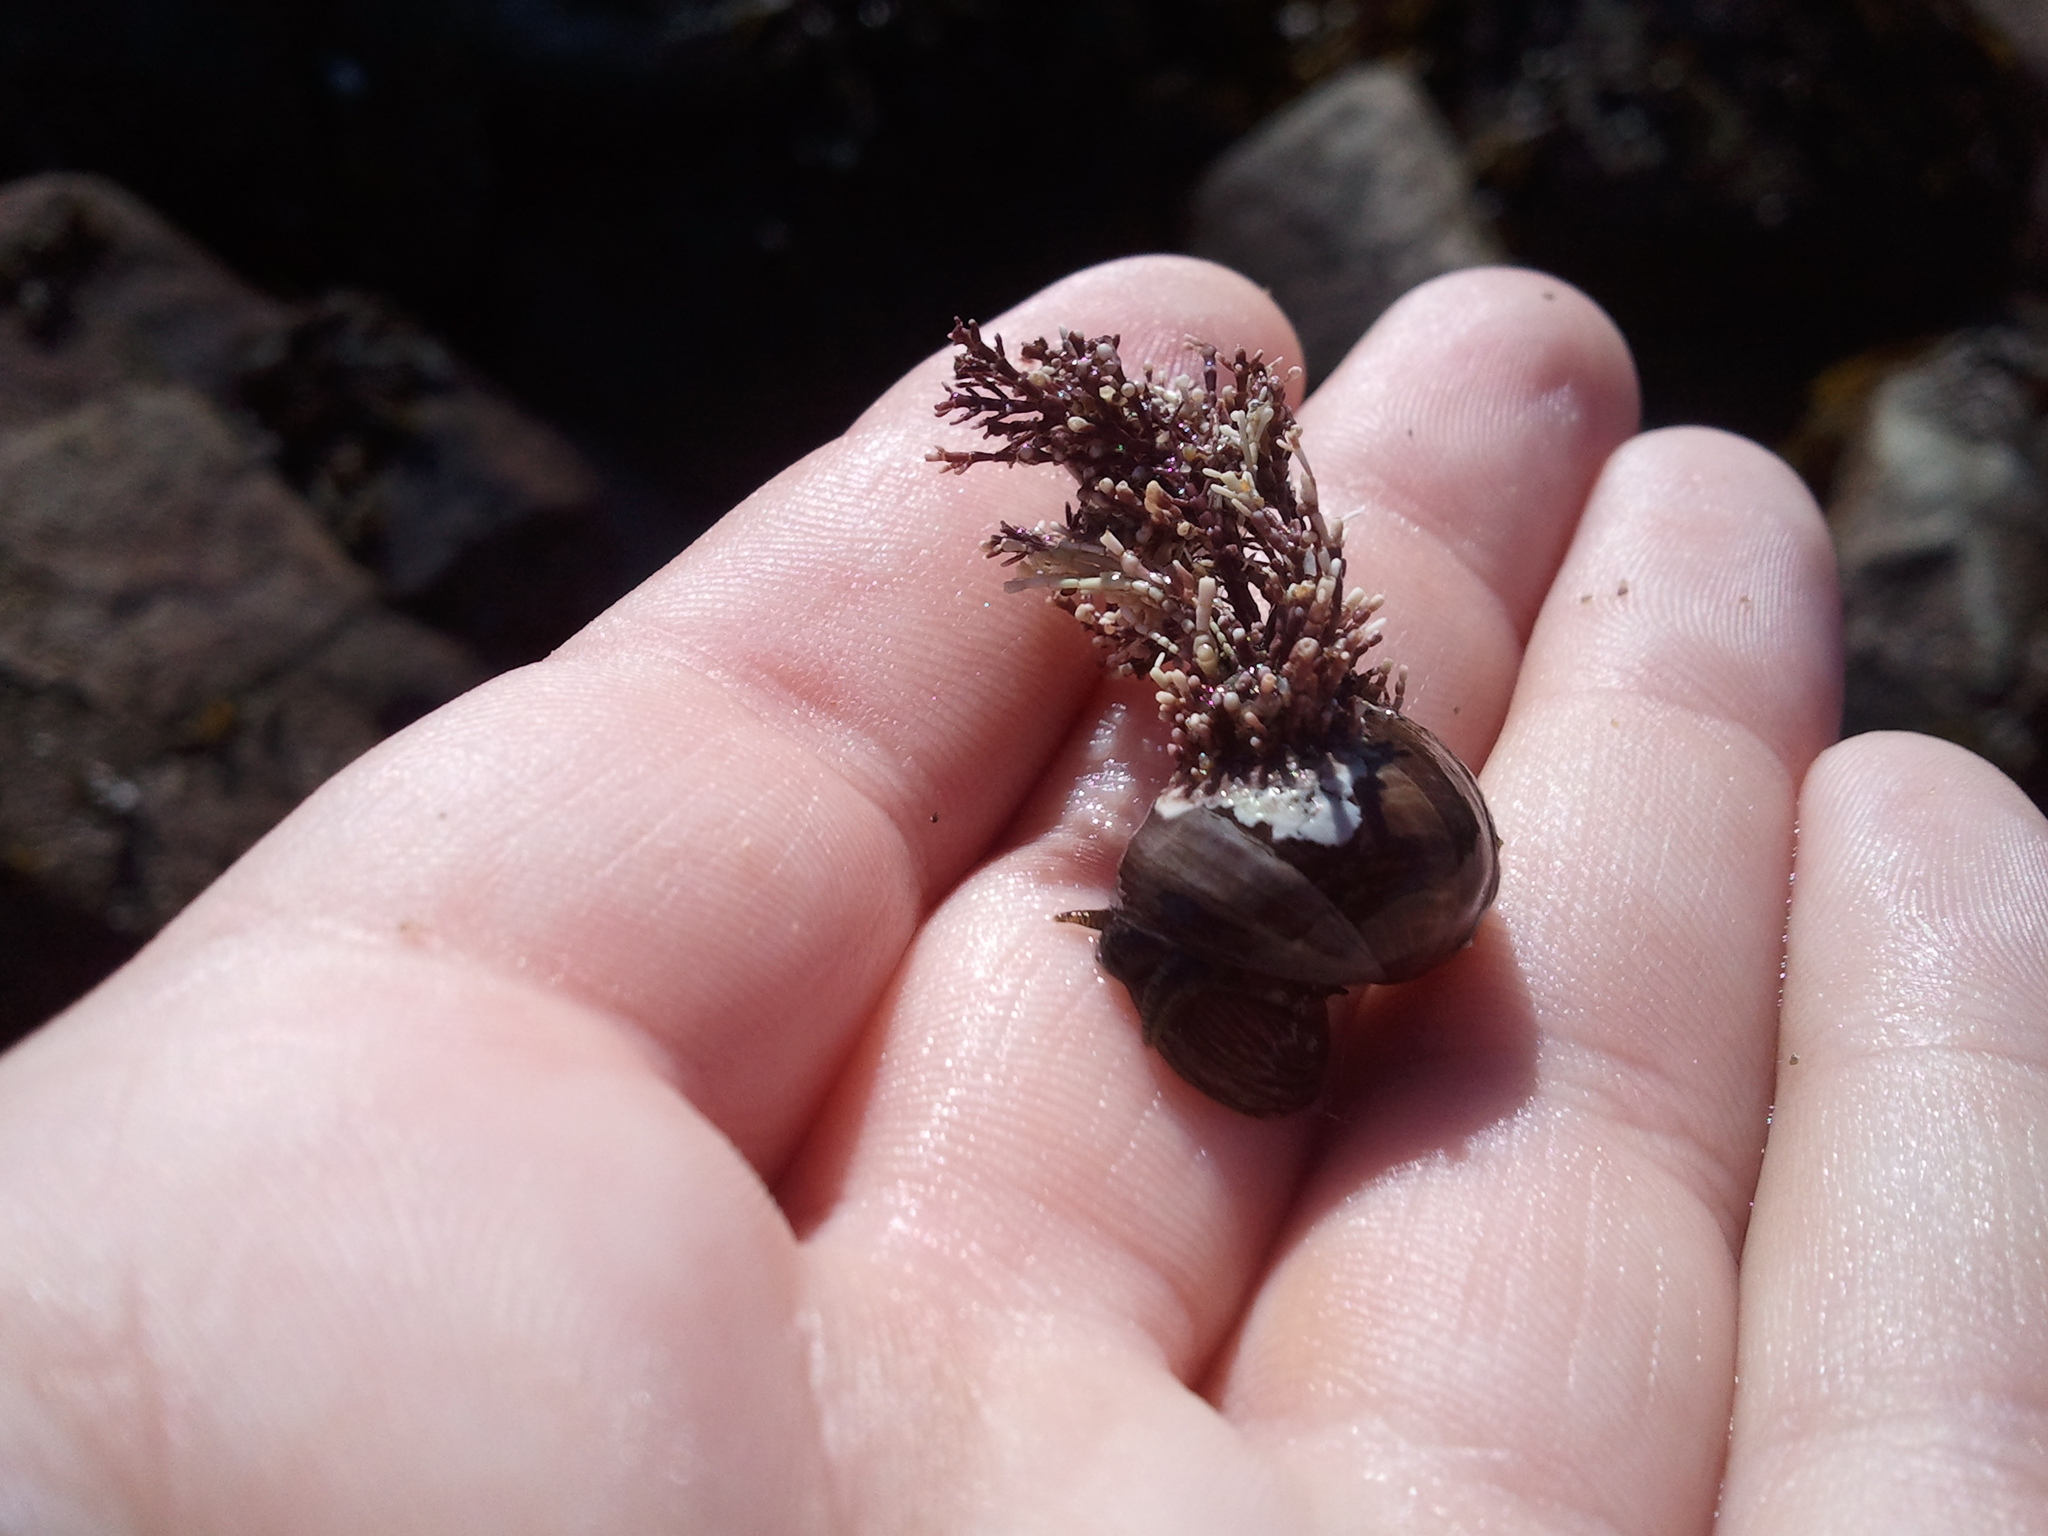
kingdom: Plantae
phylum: Rhodophyta
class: Florideophyceae
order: Corallinales
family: Corallinaceae
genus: Corallina
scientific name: Corallina officinalis
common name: Coral weed
